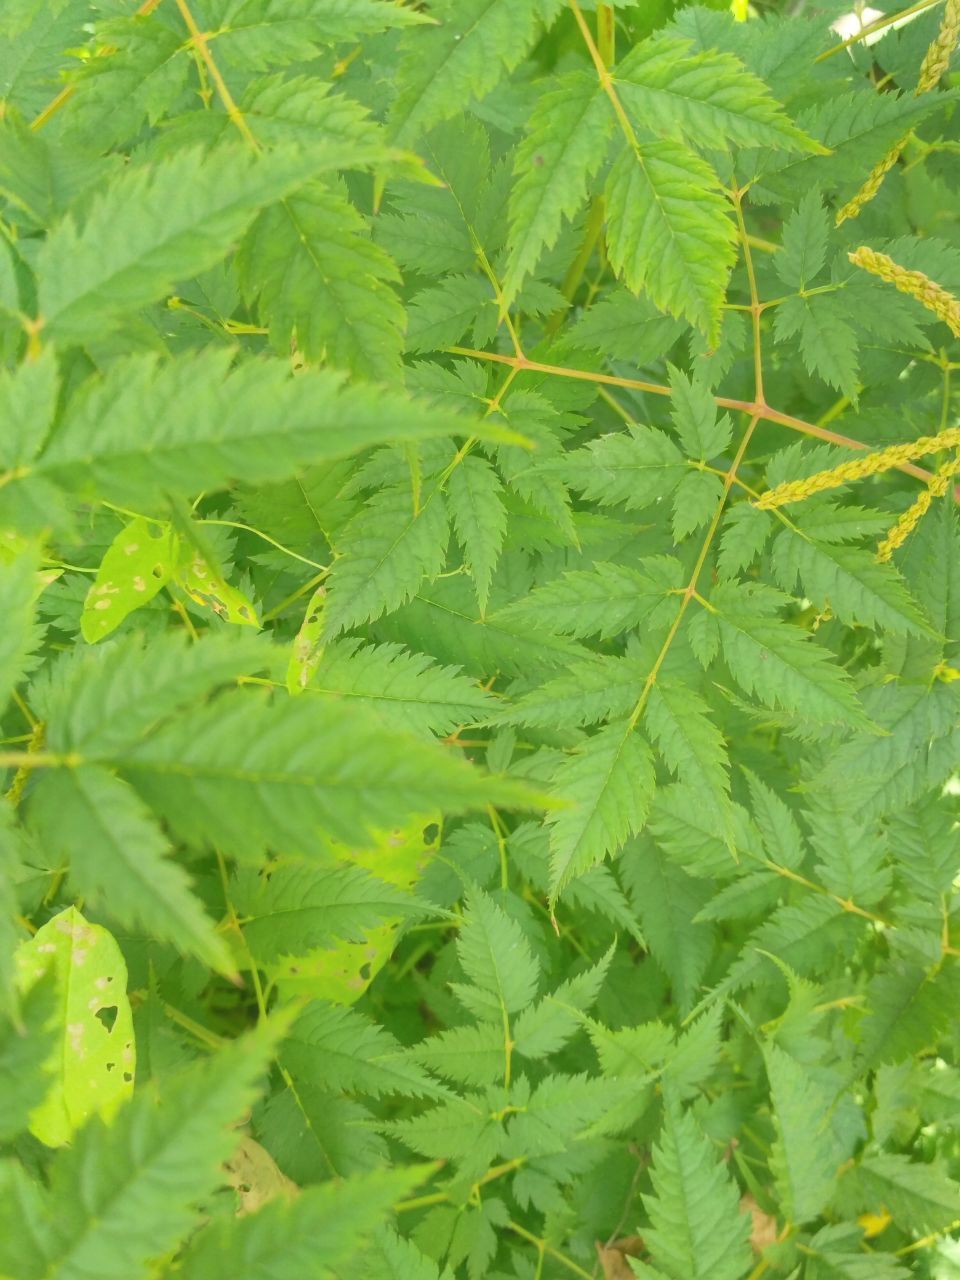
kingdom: Plantae
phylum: Tracheophyta
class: Magnoliopsida
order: Rosales
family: Rosaceae
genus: Aruncus
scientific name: Aruncus dioicus
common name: Buck's-beard
